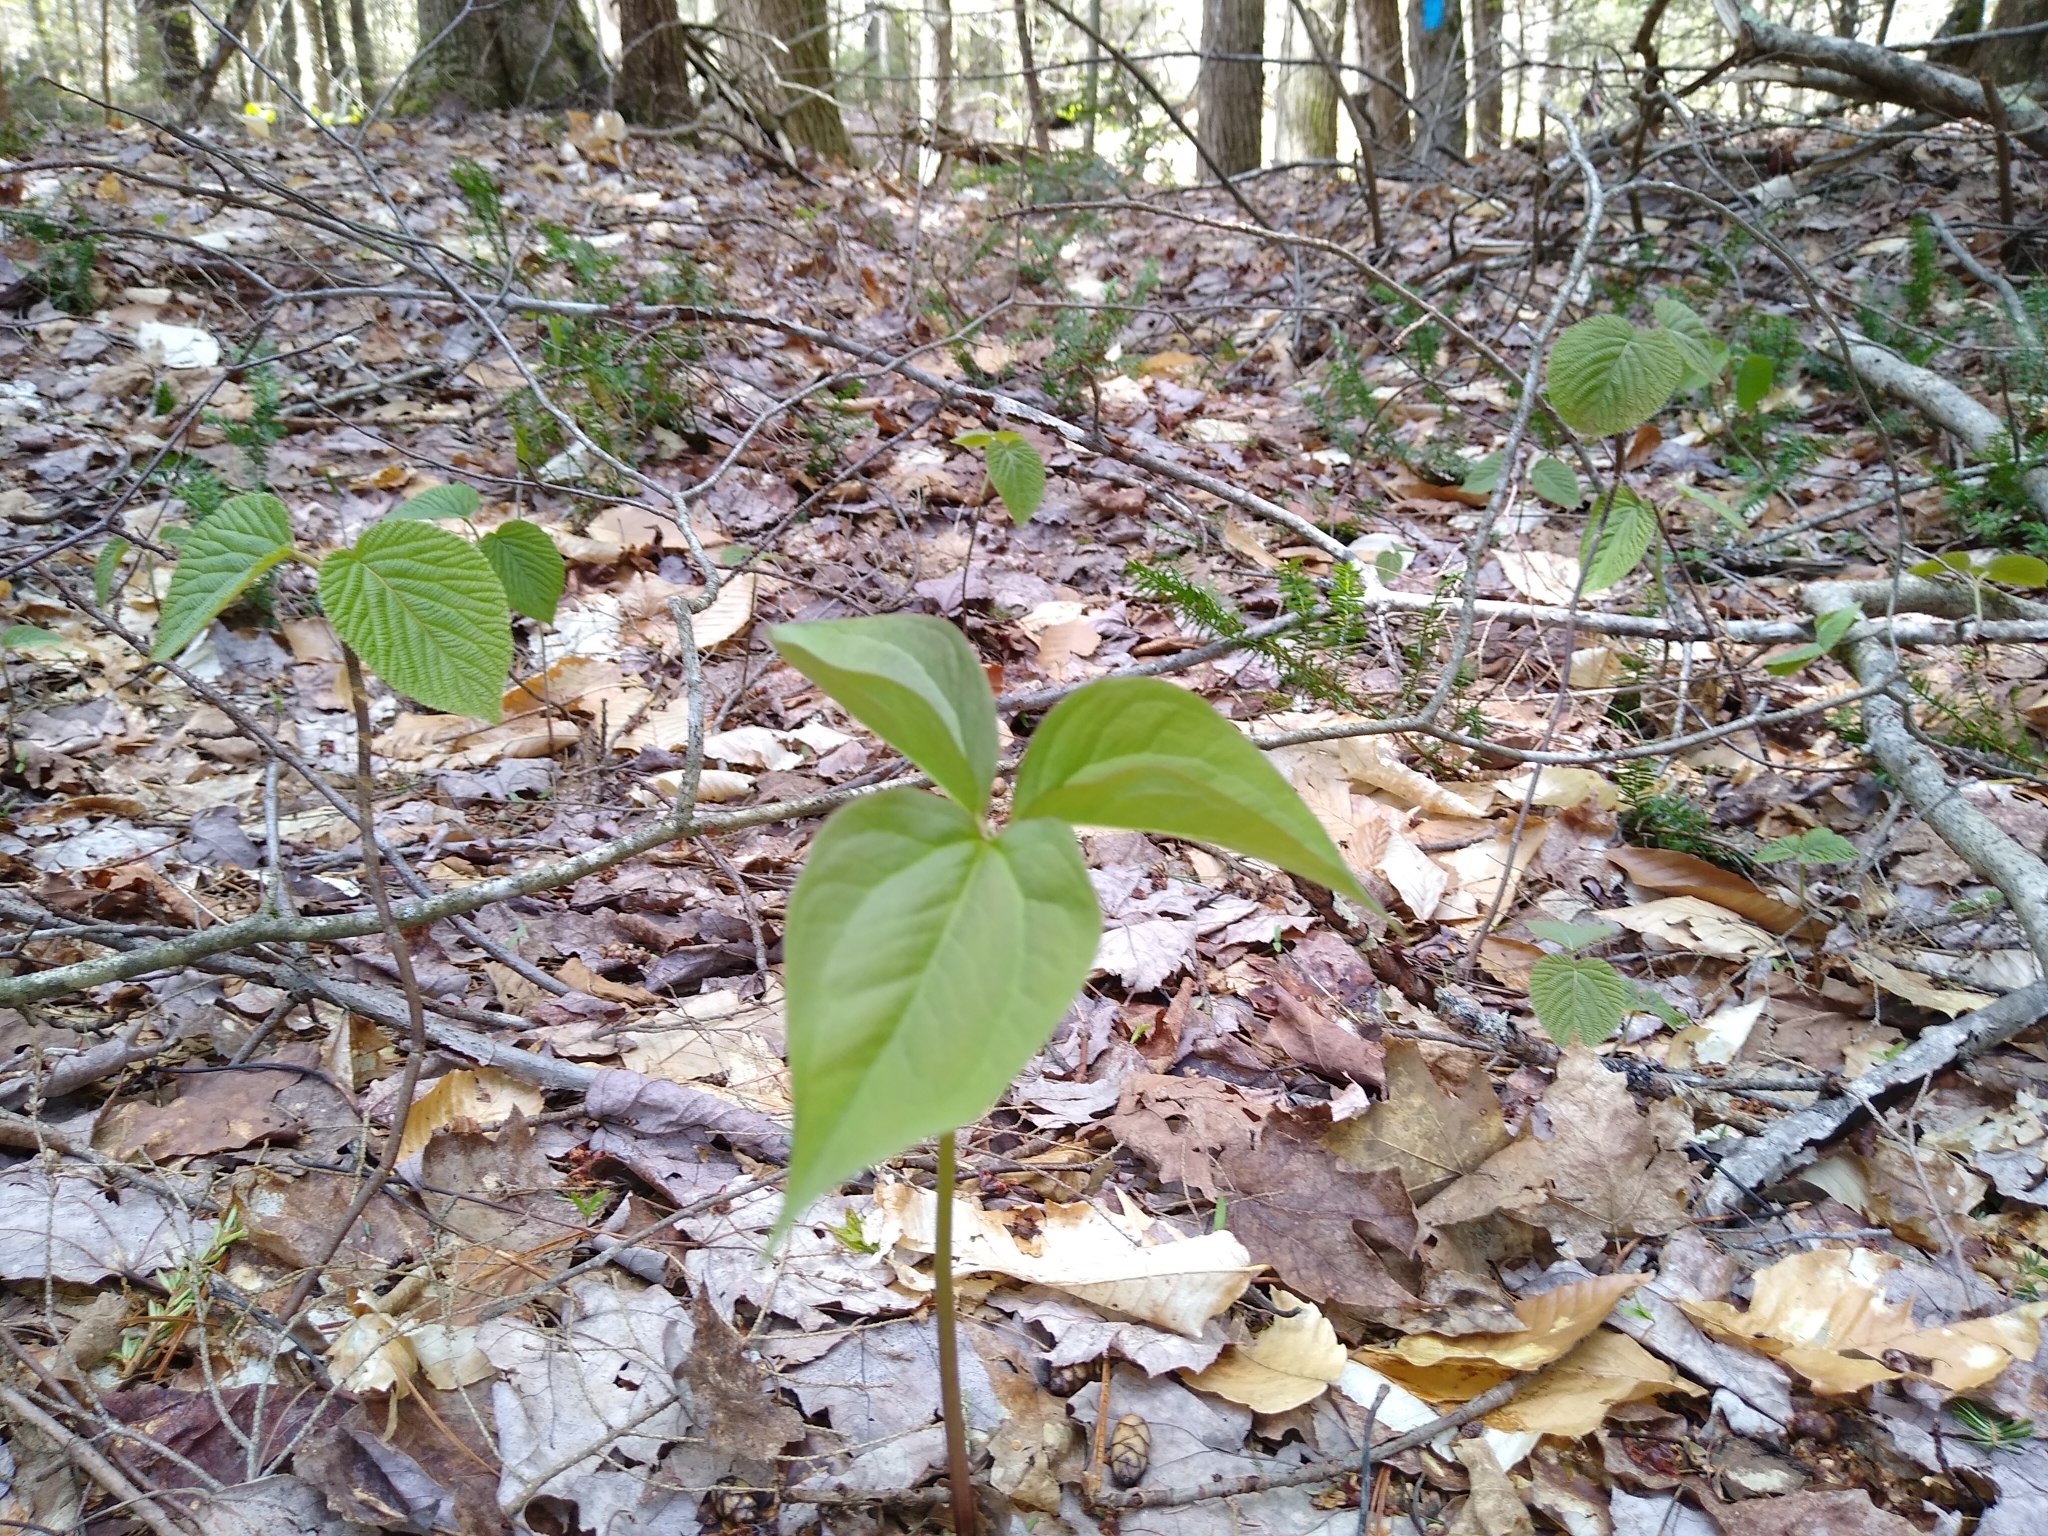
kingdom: Plantae
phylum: Tracheophyta
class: Liliopsida
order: Liliales
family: Melanthiaceae
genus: Trillium
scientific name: Trillium undulatum
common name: Paint trillium
